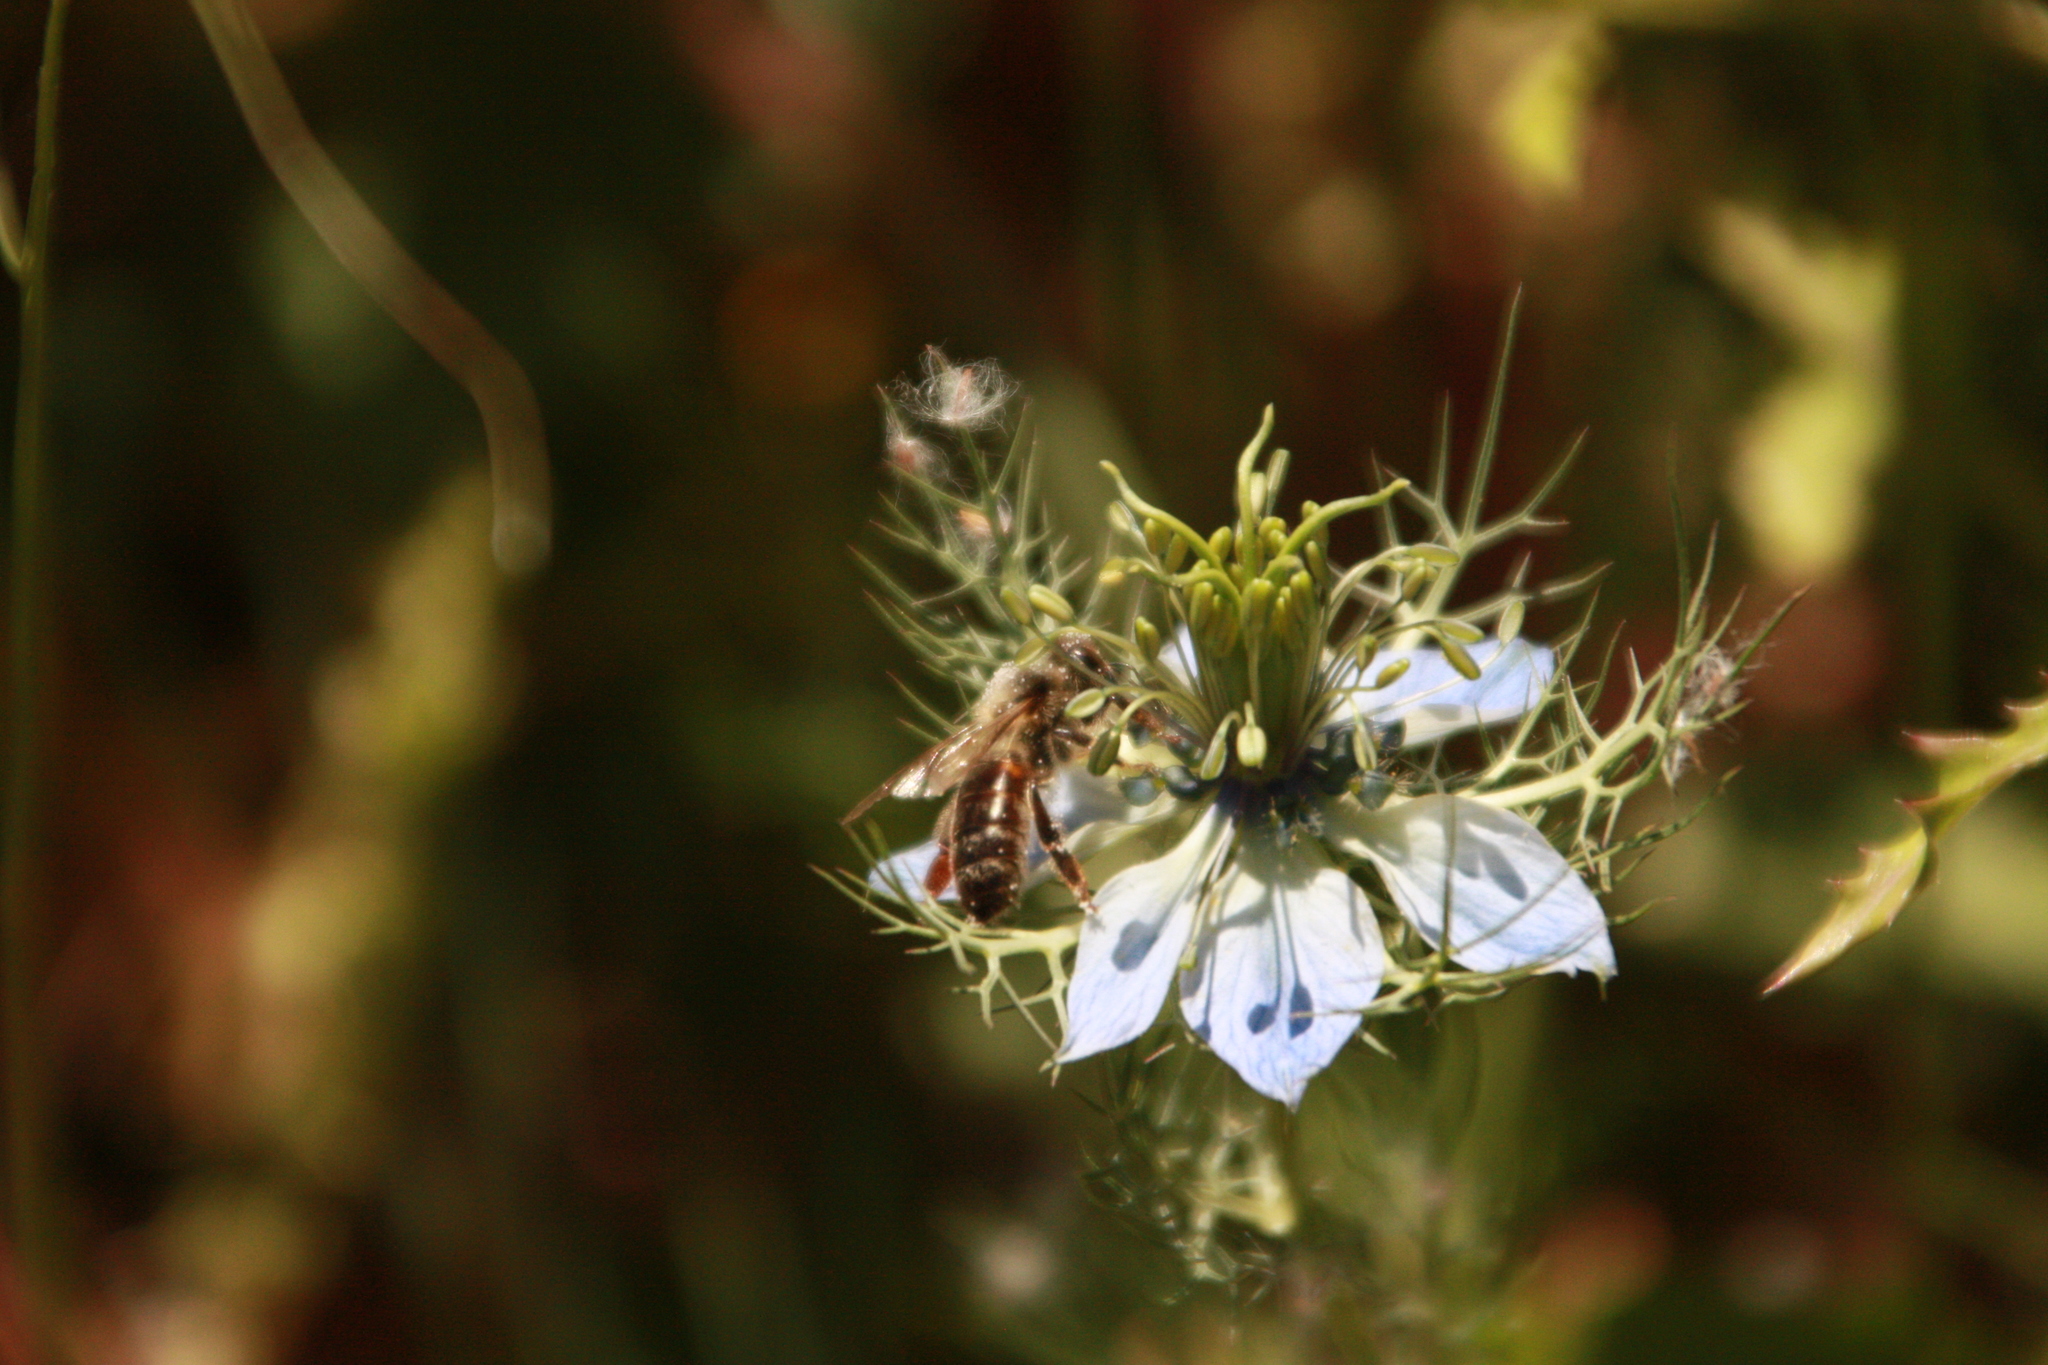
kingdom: Animalia
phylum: Arthropoda
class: Insecta
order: Hymenoptera
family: Apidae
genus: Apis
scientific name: Apis mellifera
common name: Honey bee
